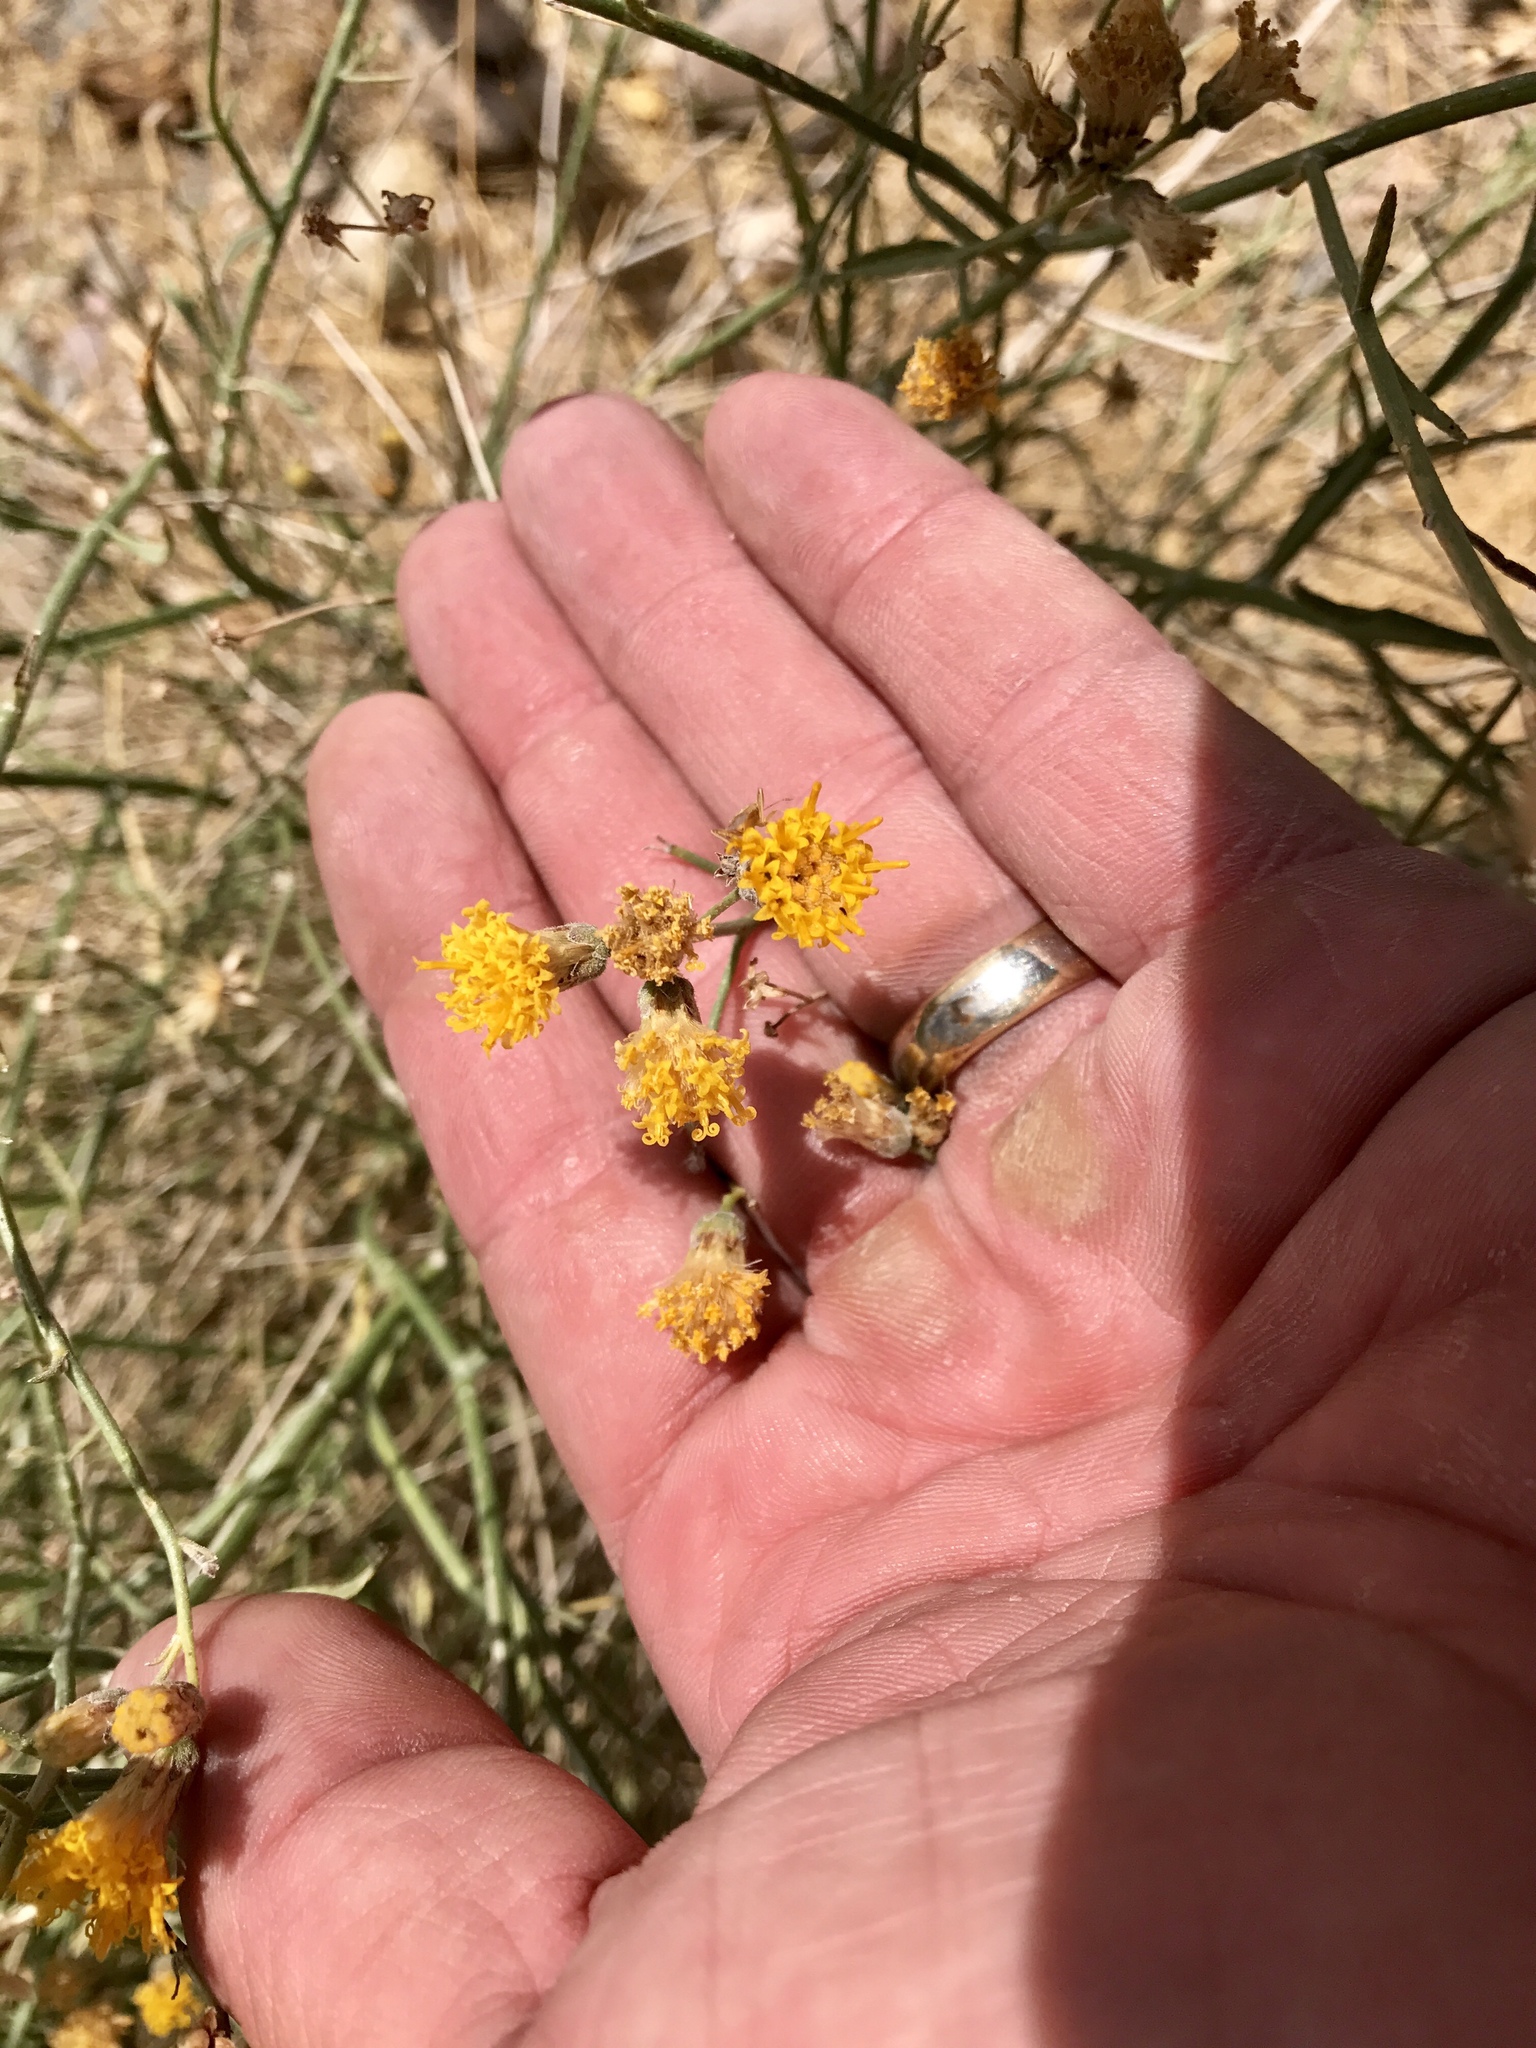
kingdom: Plantae
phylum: Tracheophyta
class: Magnoliopsida
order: Asterales
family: Asteraceae
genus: Bebbia
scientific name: Bebbia juncea
